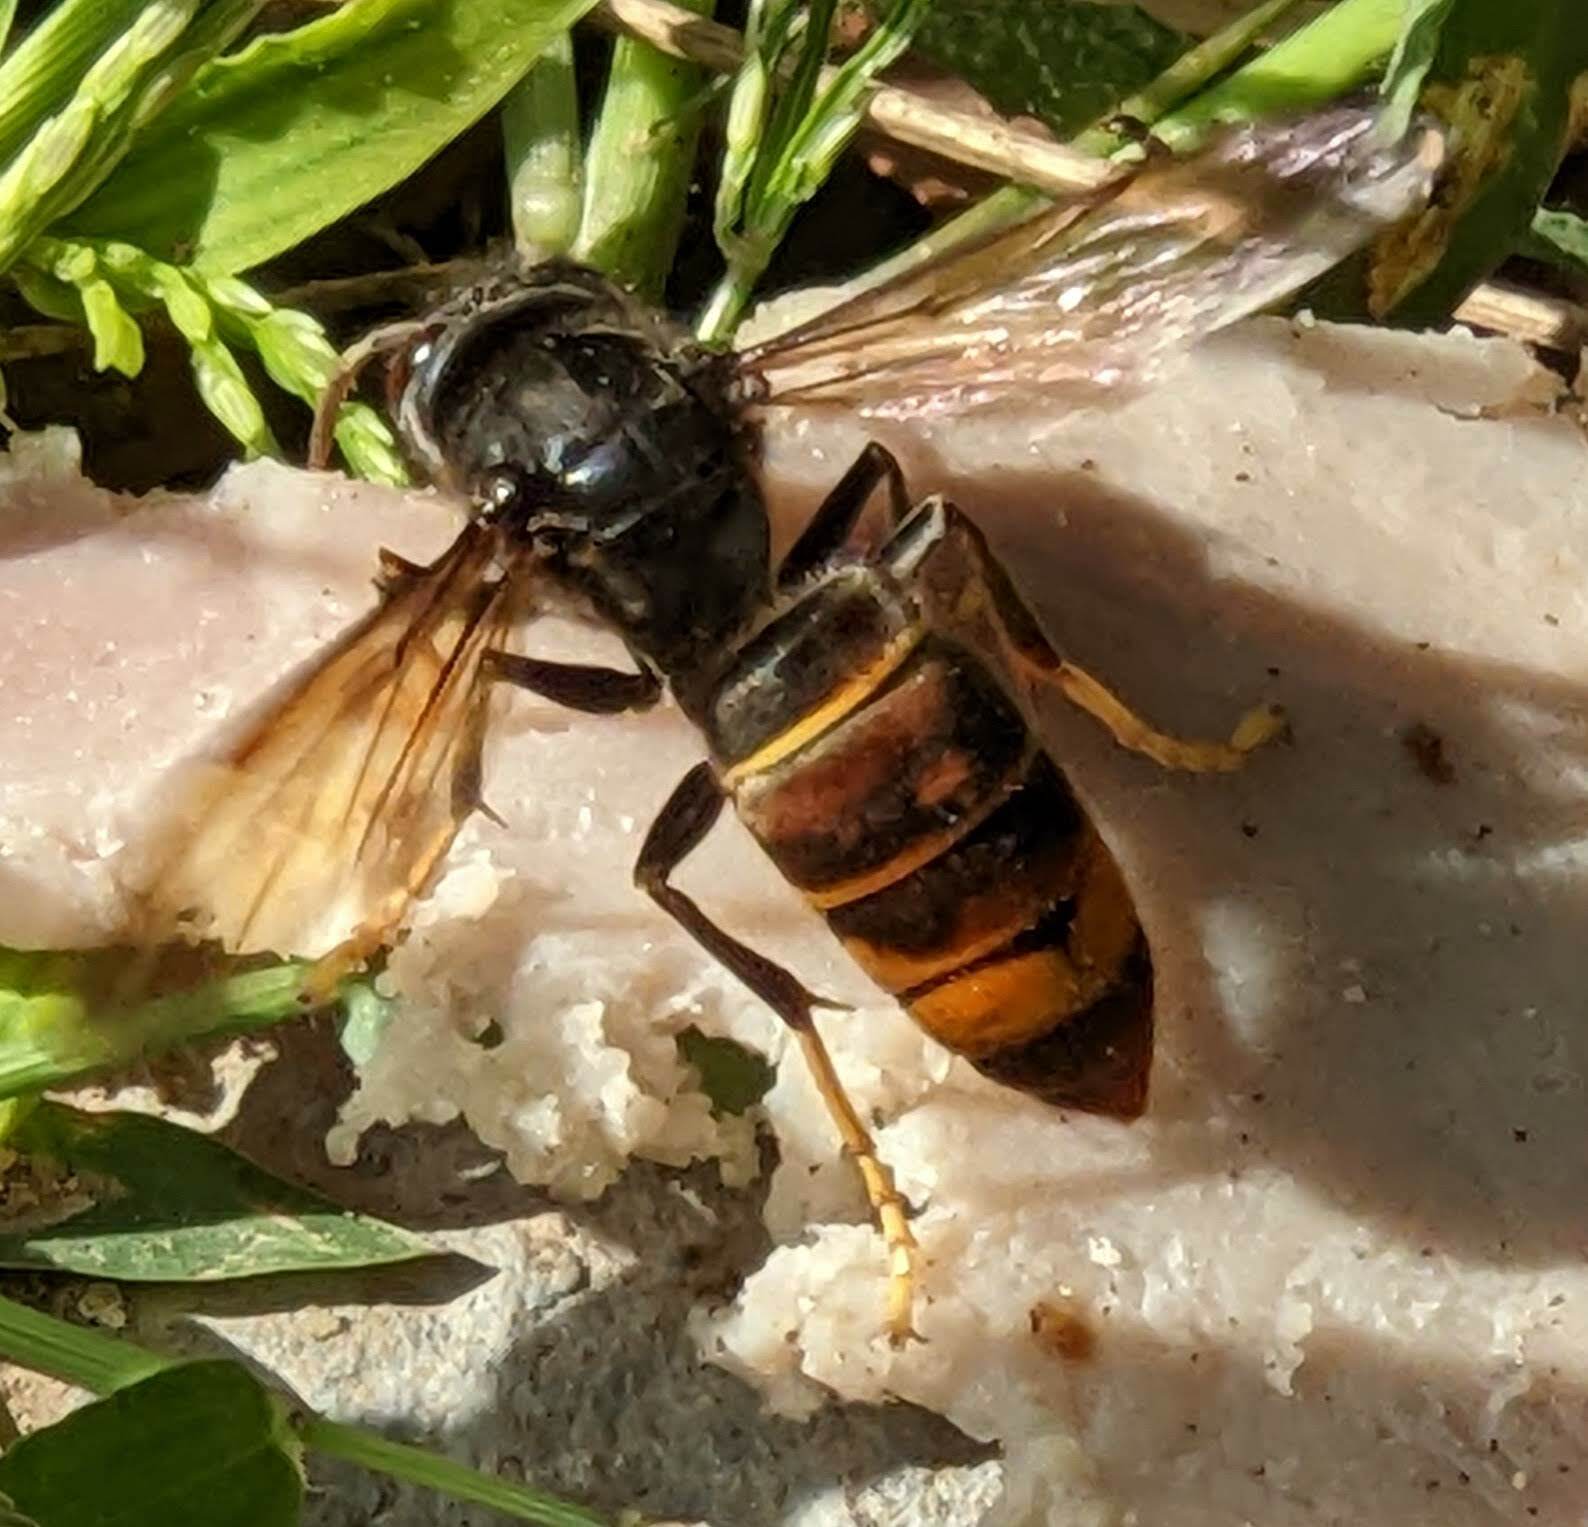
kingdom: Animalia
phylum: Arthropoda
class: Insecta
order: Hymenoptera
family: Vespidae
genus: Vespa
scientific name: Vespa velutina
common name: Asian hornet
